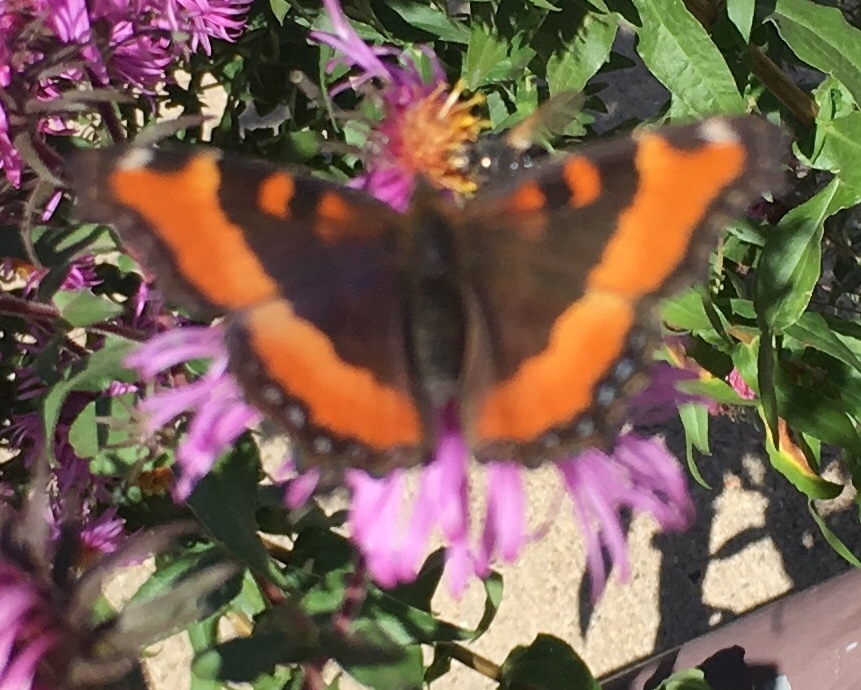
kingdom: Animalia
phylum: Arthropoda
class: Insecta
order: Lepidoptera
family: Nymphalidae
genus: Aglais
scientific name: Aglais milberti
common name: Milbert's tortoiseshell
